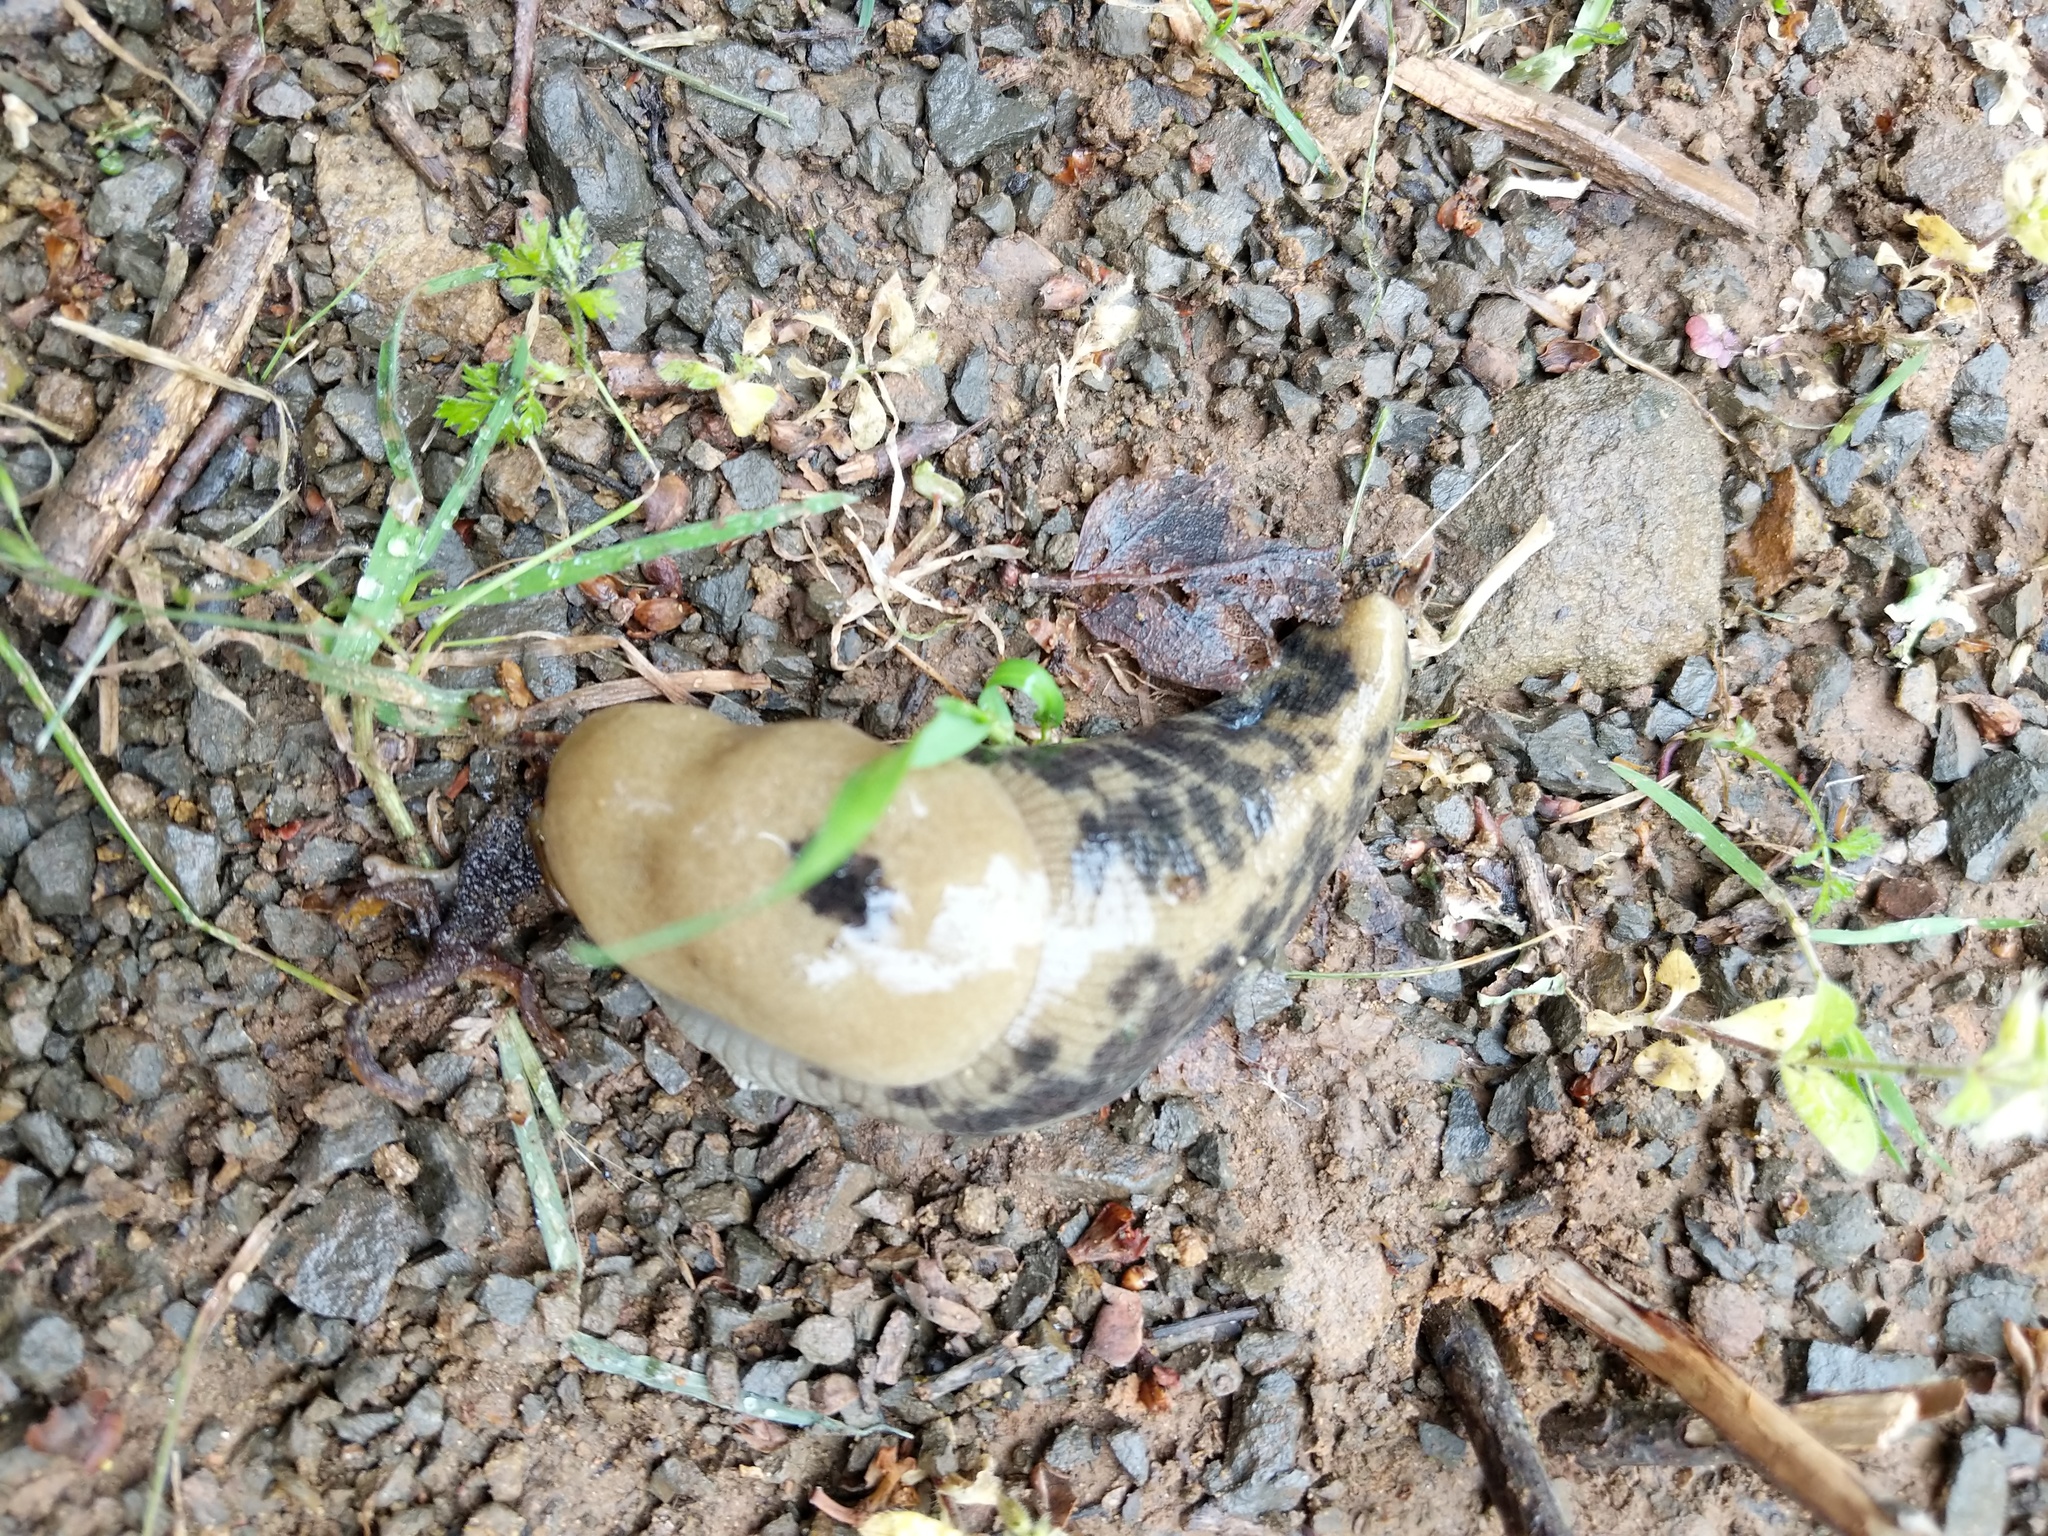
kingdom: Animalia
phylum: Mollusca
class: Gastropoda
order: Stylommatophora
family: Ariolimacidae
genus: Ariolimax
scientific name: Ariolimax buttoni
